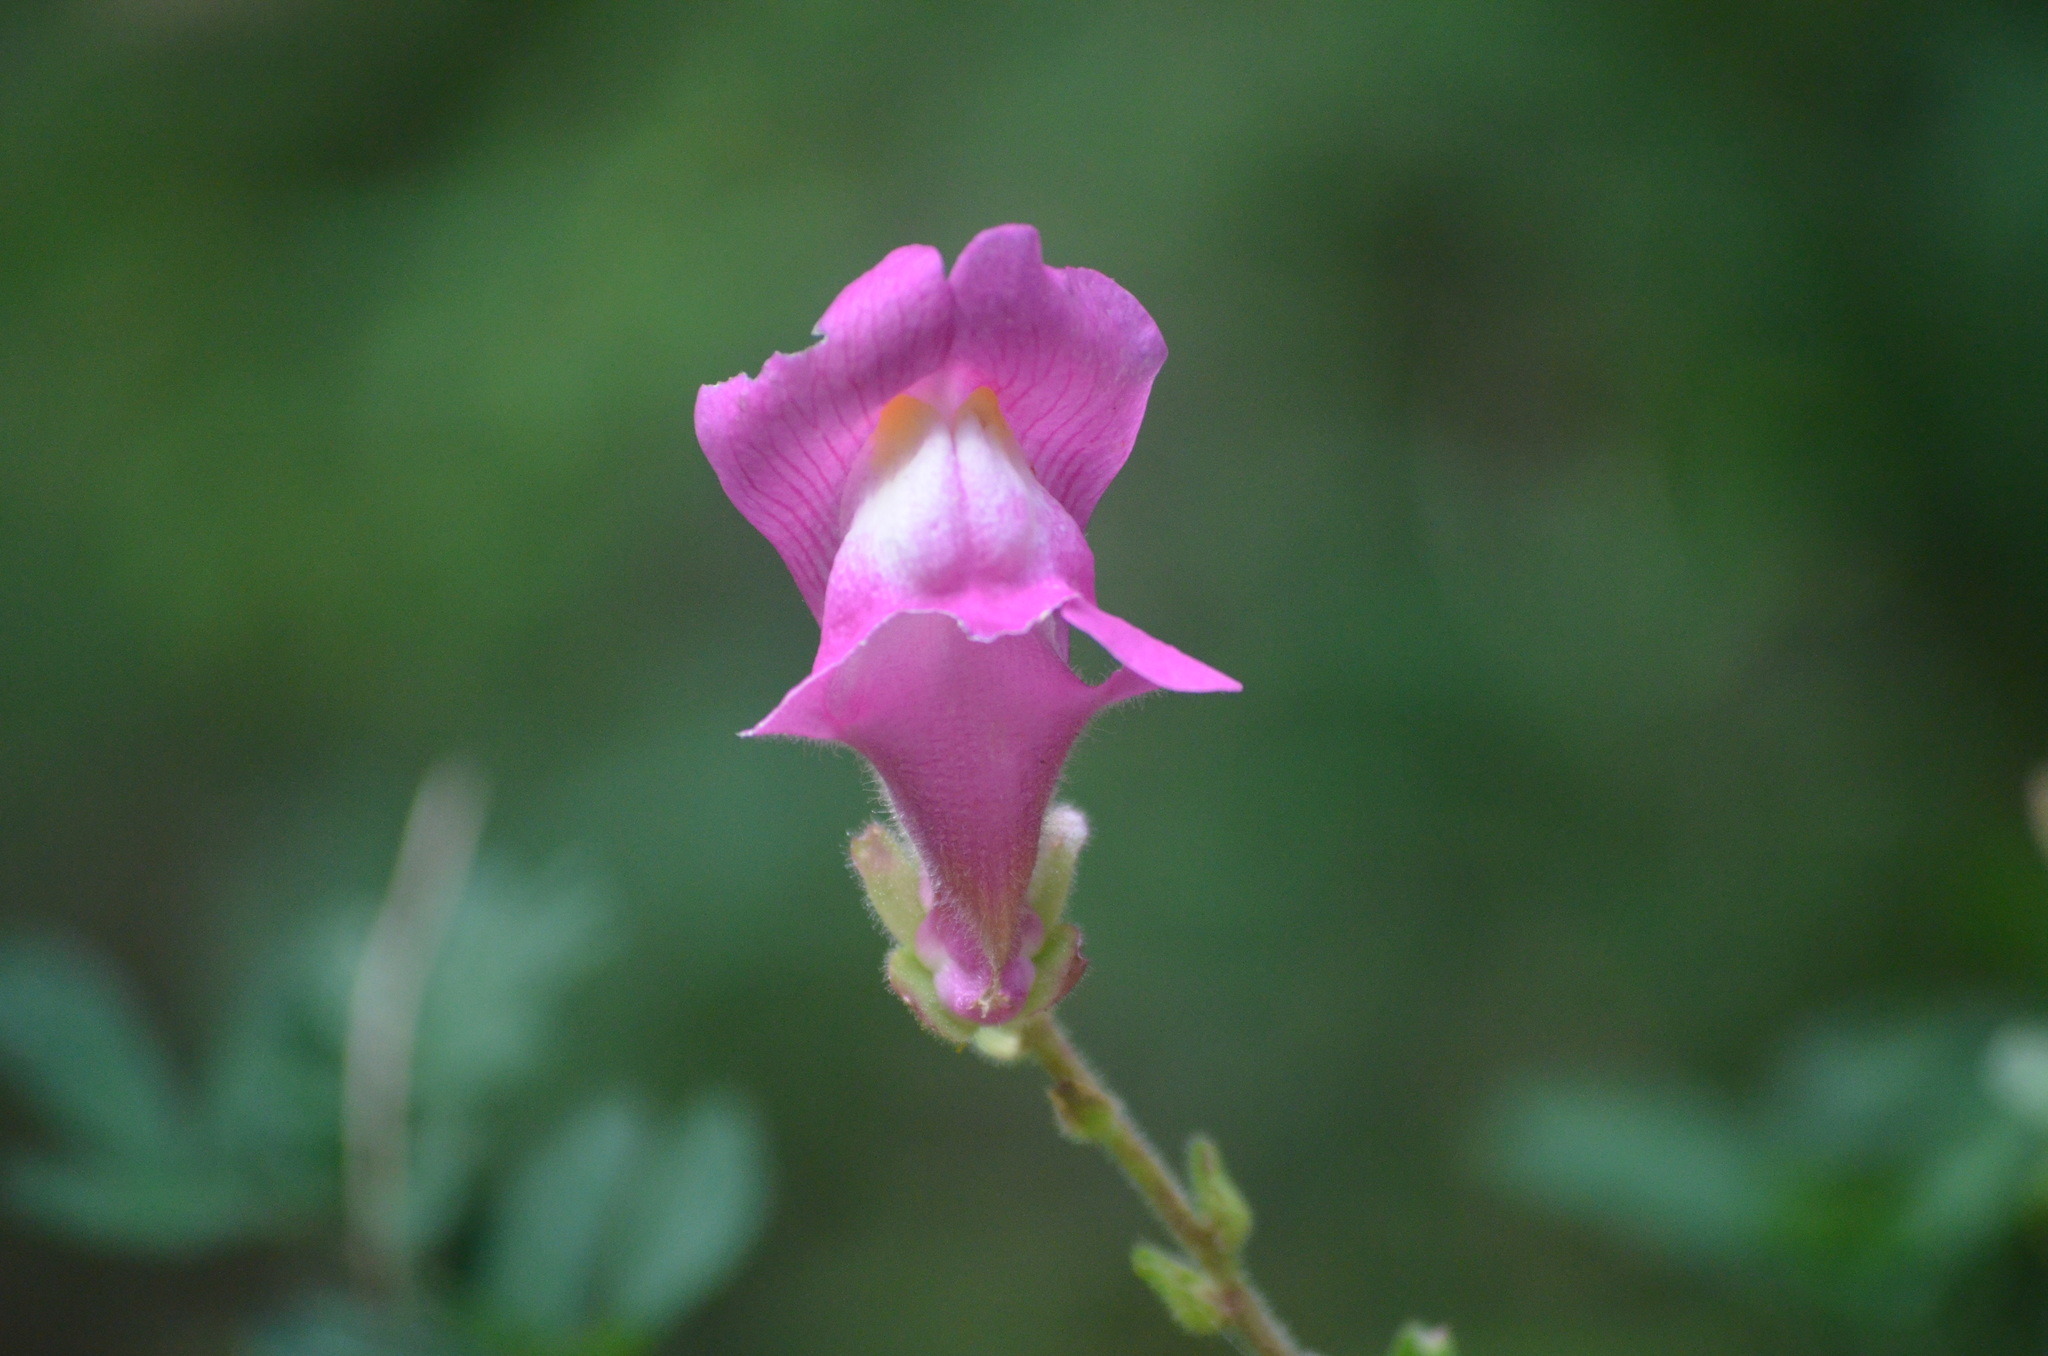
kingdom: Plantae
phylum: Tracheophyta
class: Magnoliopsida
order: Lamiales
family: Plantaginaceae
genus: Antirrhinum
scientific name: Antirrhinum majus
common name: Snapdragon
